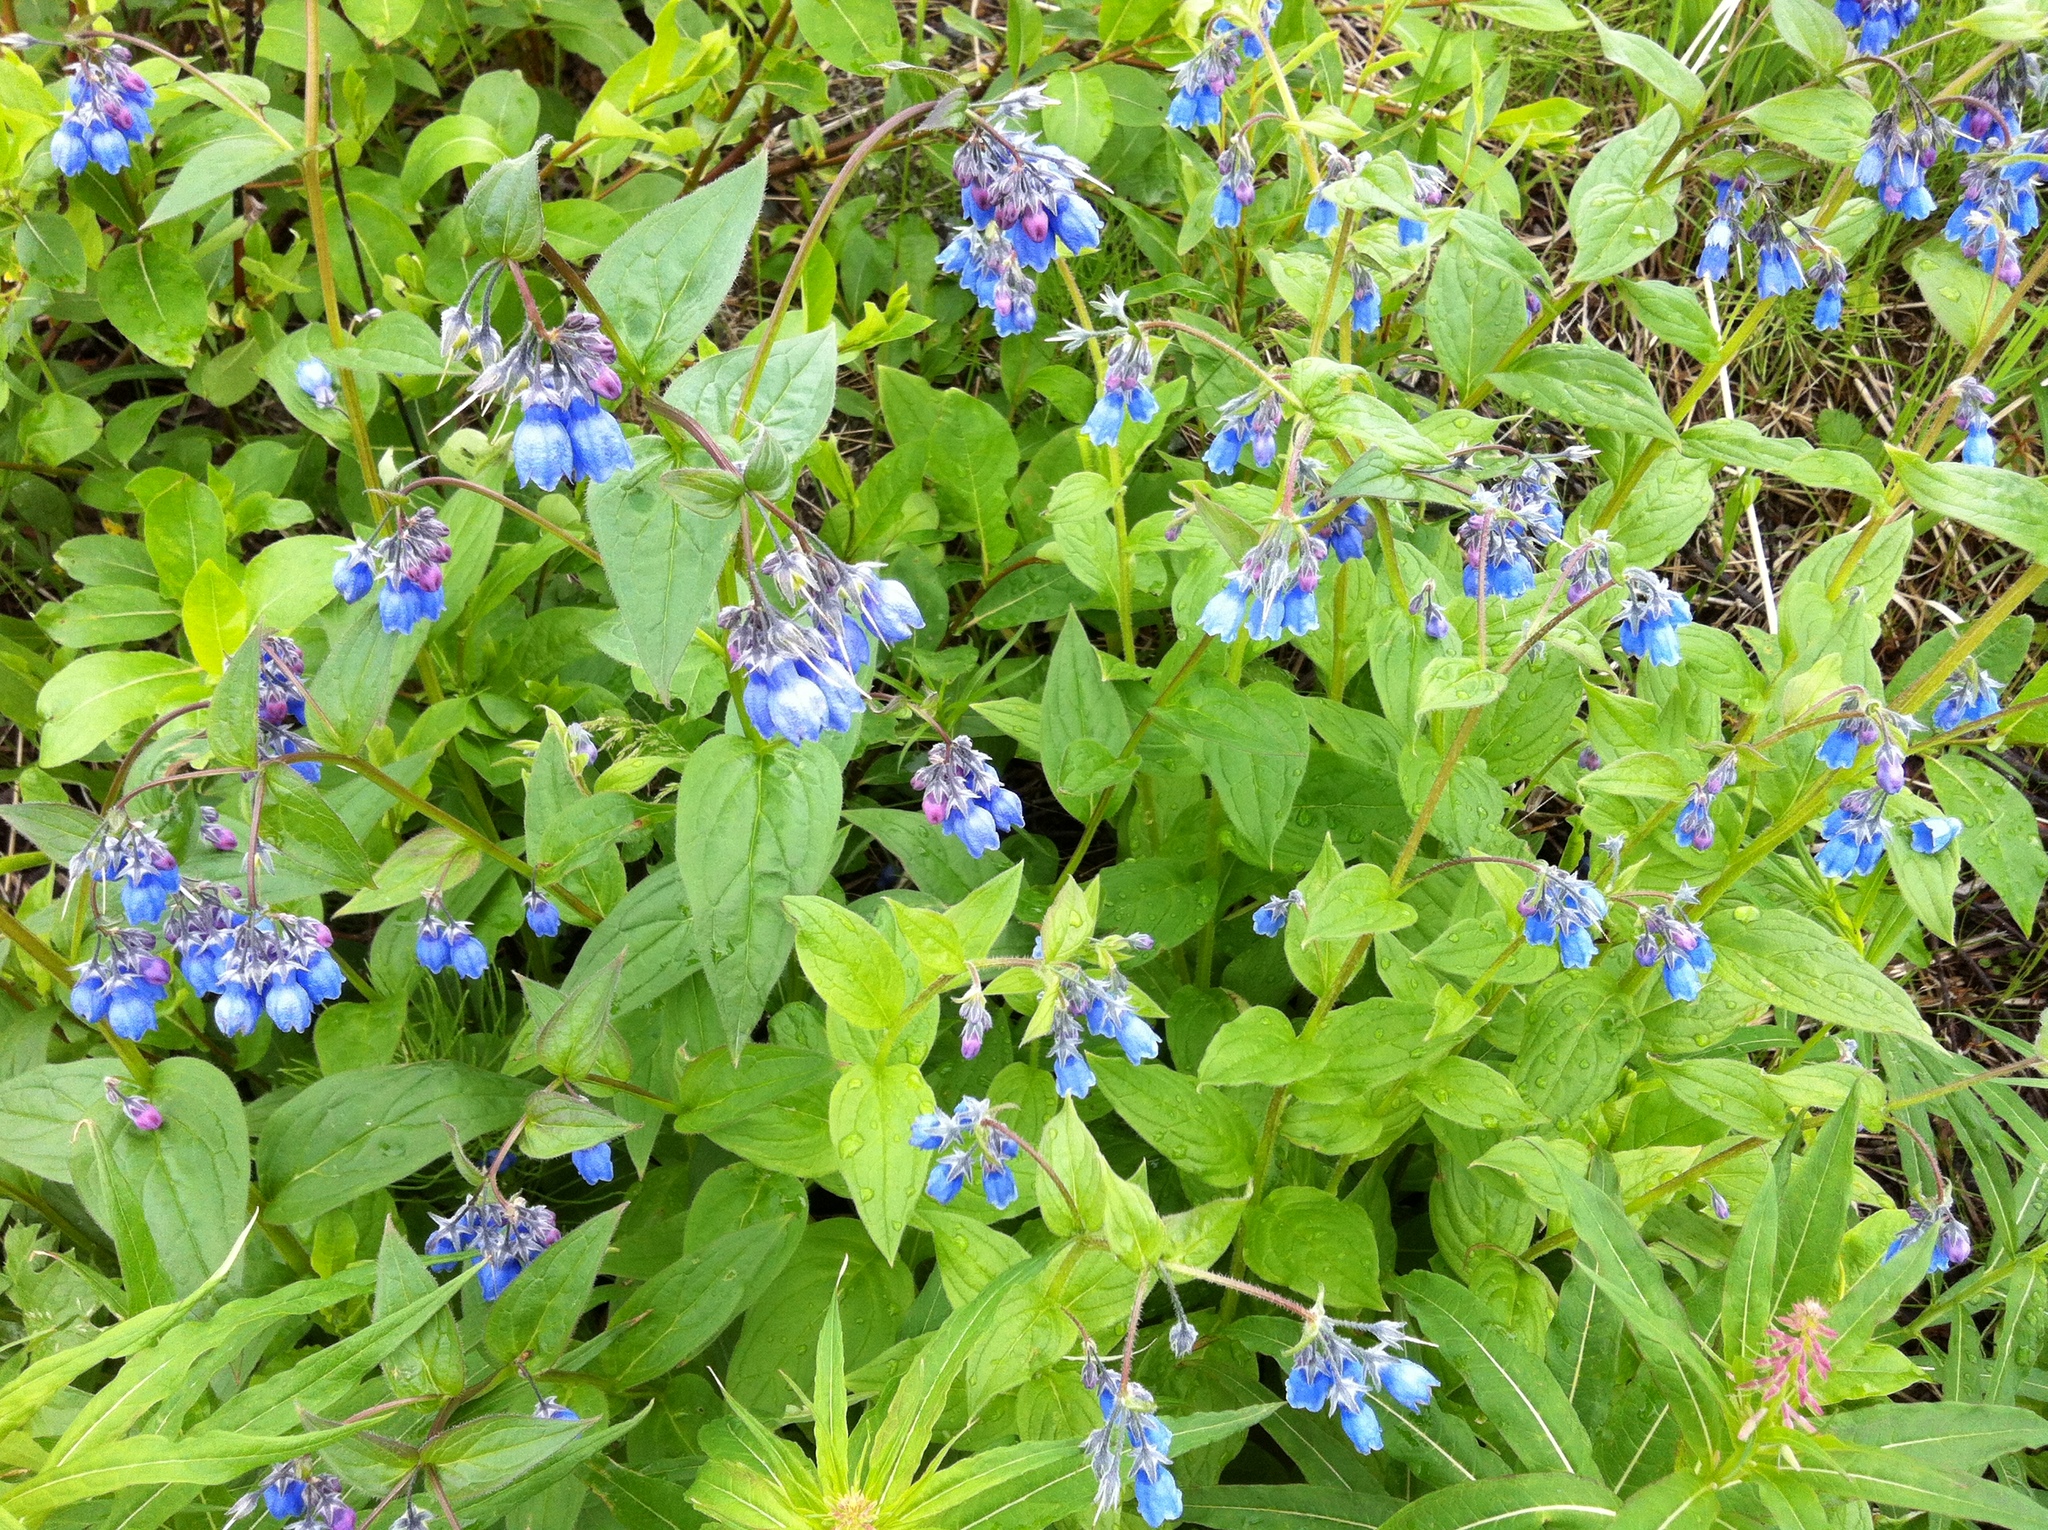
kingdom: Plantae
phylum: Tracheophyta
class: Magnoliopsida
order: Boraginales
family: Boraginaceae
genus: Mertensia
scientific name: Mertensia paniculata
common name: Panicled bluebells
